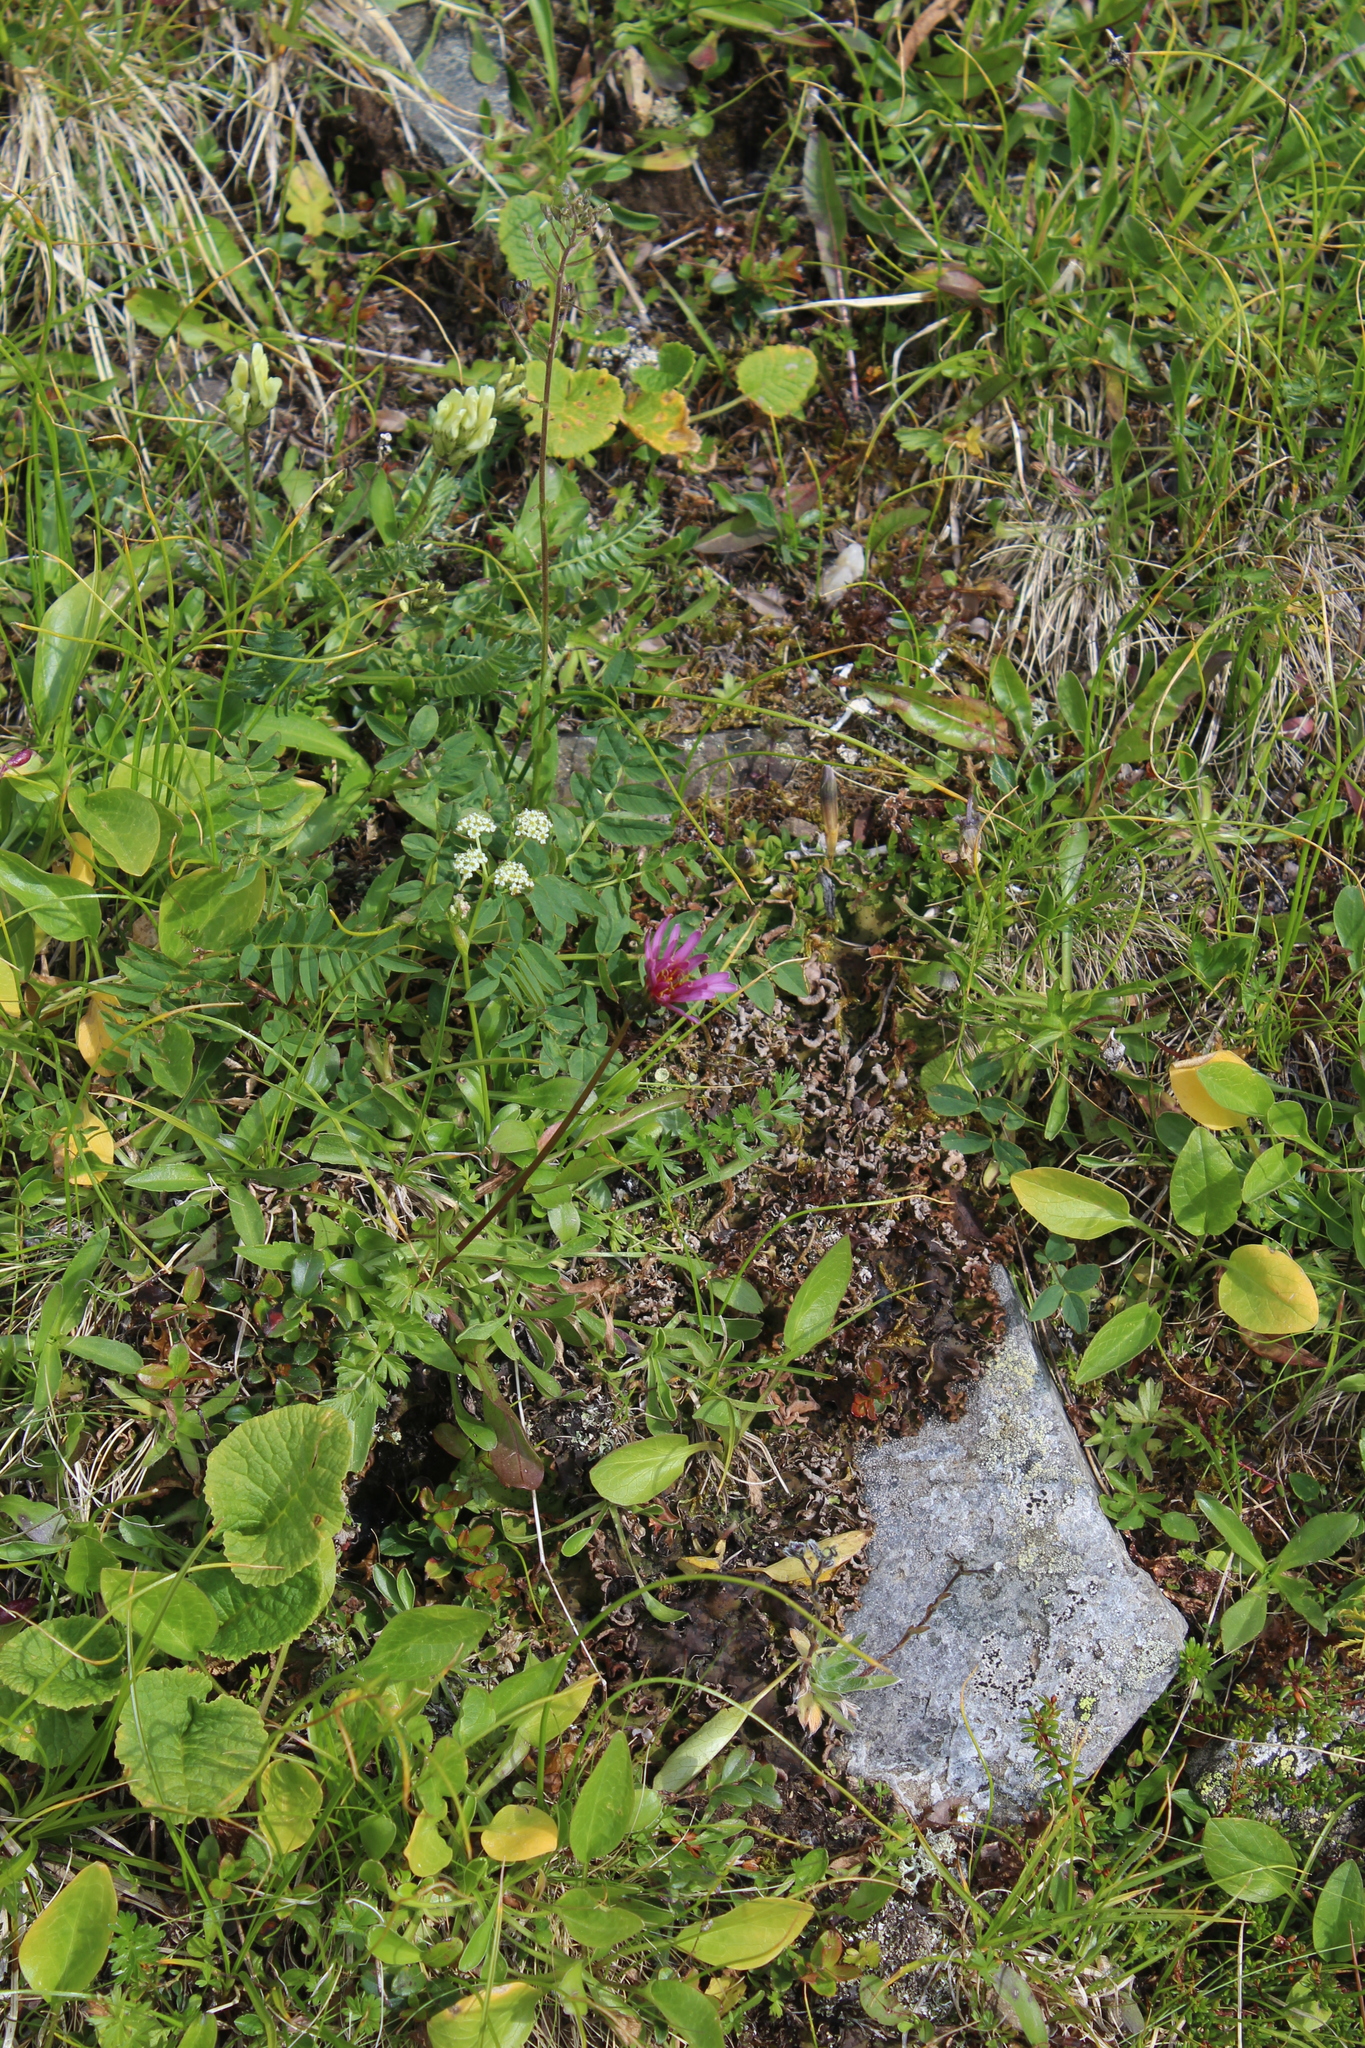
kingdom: Plantae
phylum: Tracheophyta
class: Magnoliopsida
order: Asterales
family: Asteraceae
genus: Taraxacum
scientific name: Taraxacum porphyranthum
